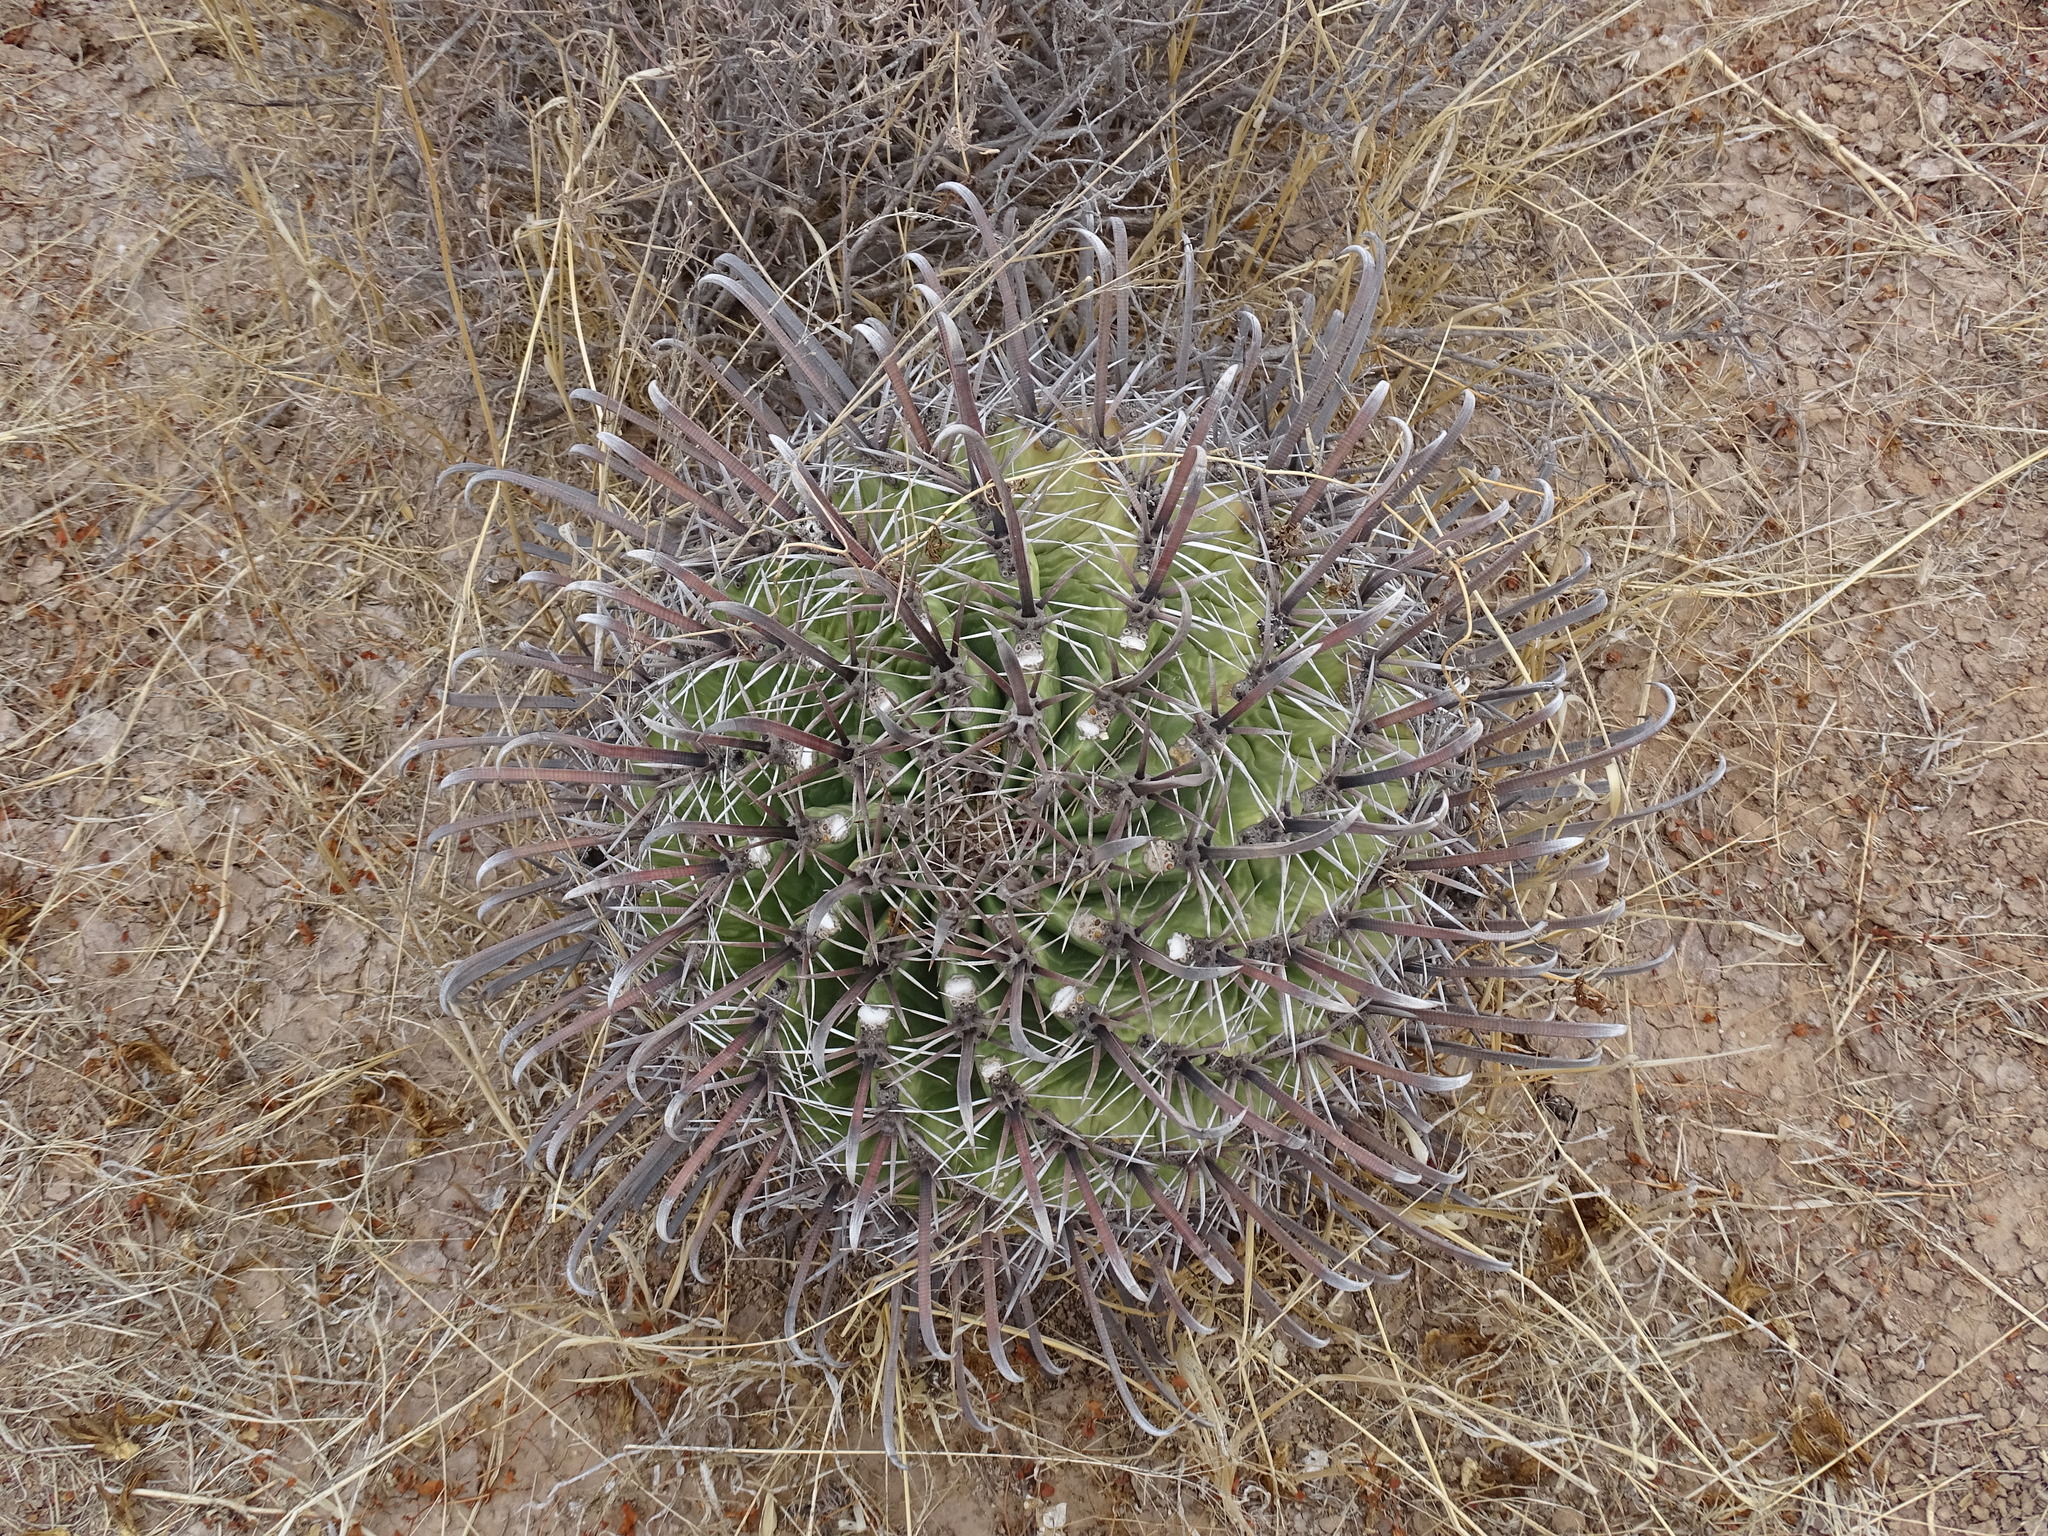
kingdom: Plantae
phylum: Tracheophyta
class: Magnoliopsida
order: Caryophyllales
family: Cactaceae
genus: Ferocactus
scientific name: Ferocactus wislizeni
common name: Candy barrel cactus
